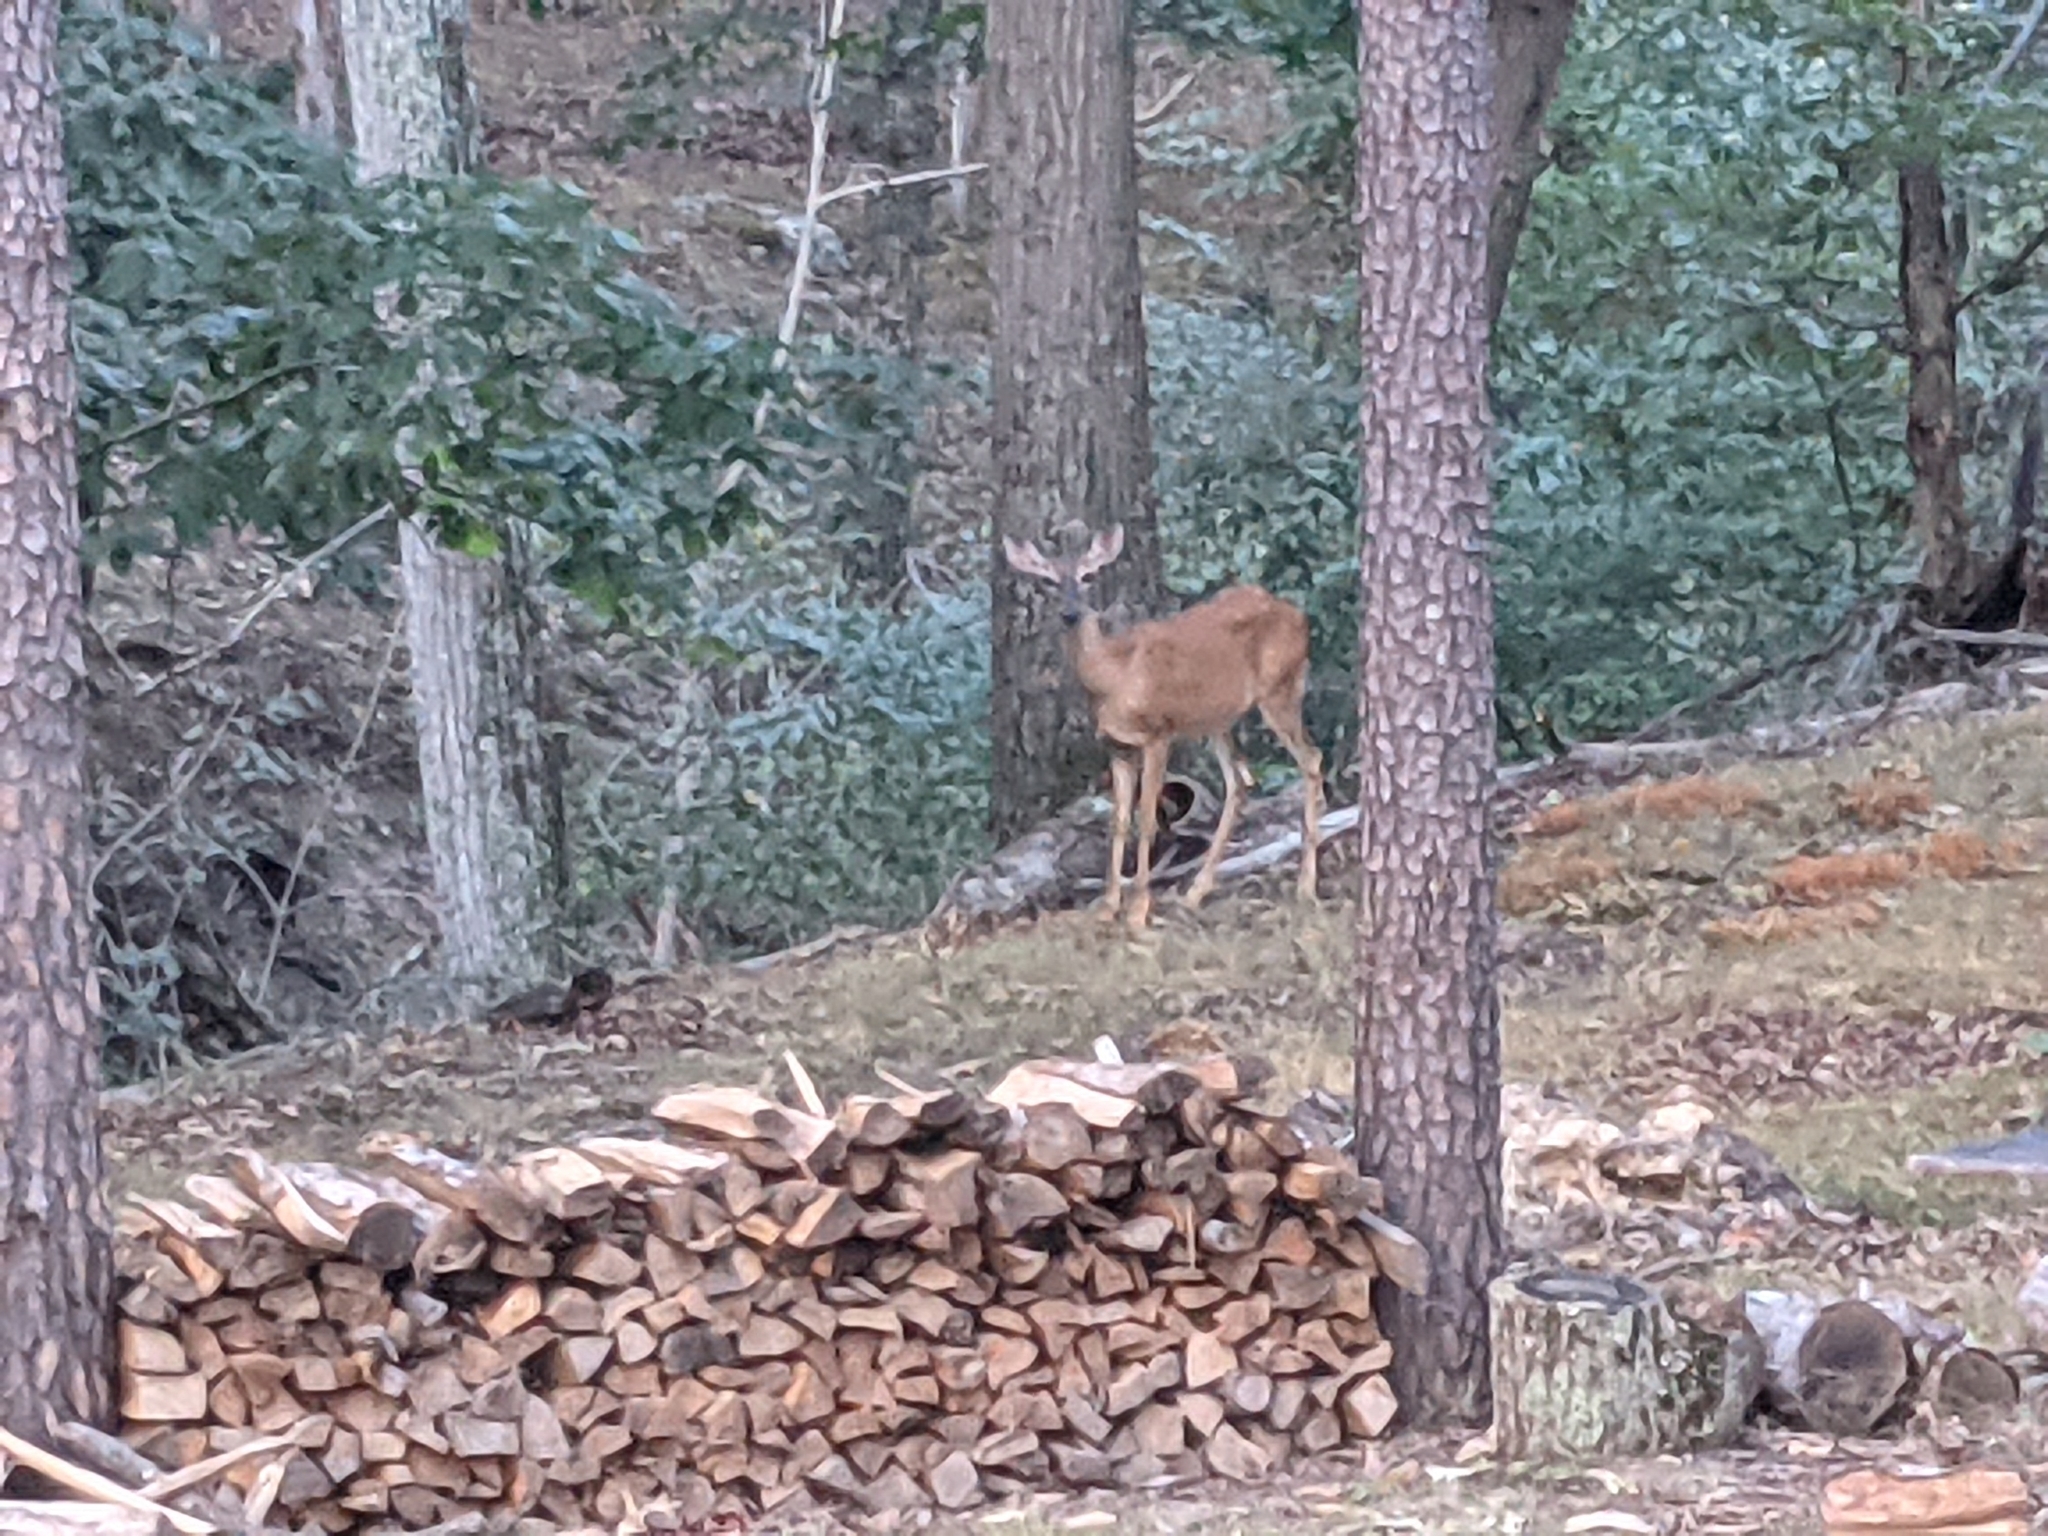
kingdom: Animalia
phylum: Chordata
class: Mammalia
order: Artiodactyla
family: Cervidae
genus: Odocoileus
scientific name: Odocoileus virginianus
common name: White-tailed deer
